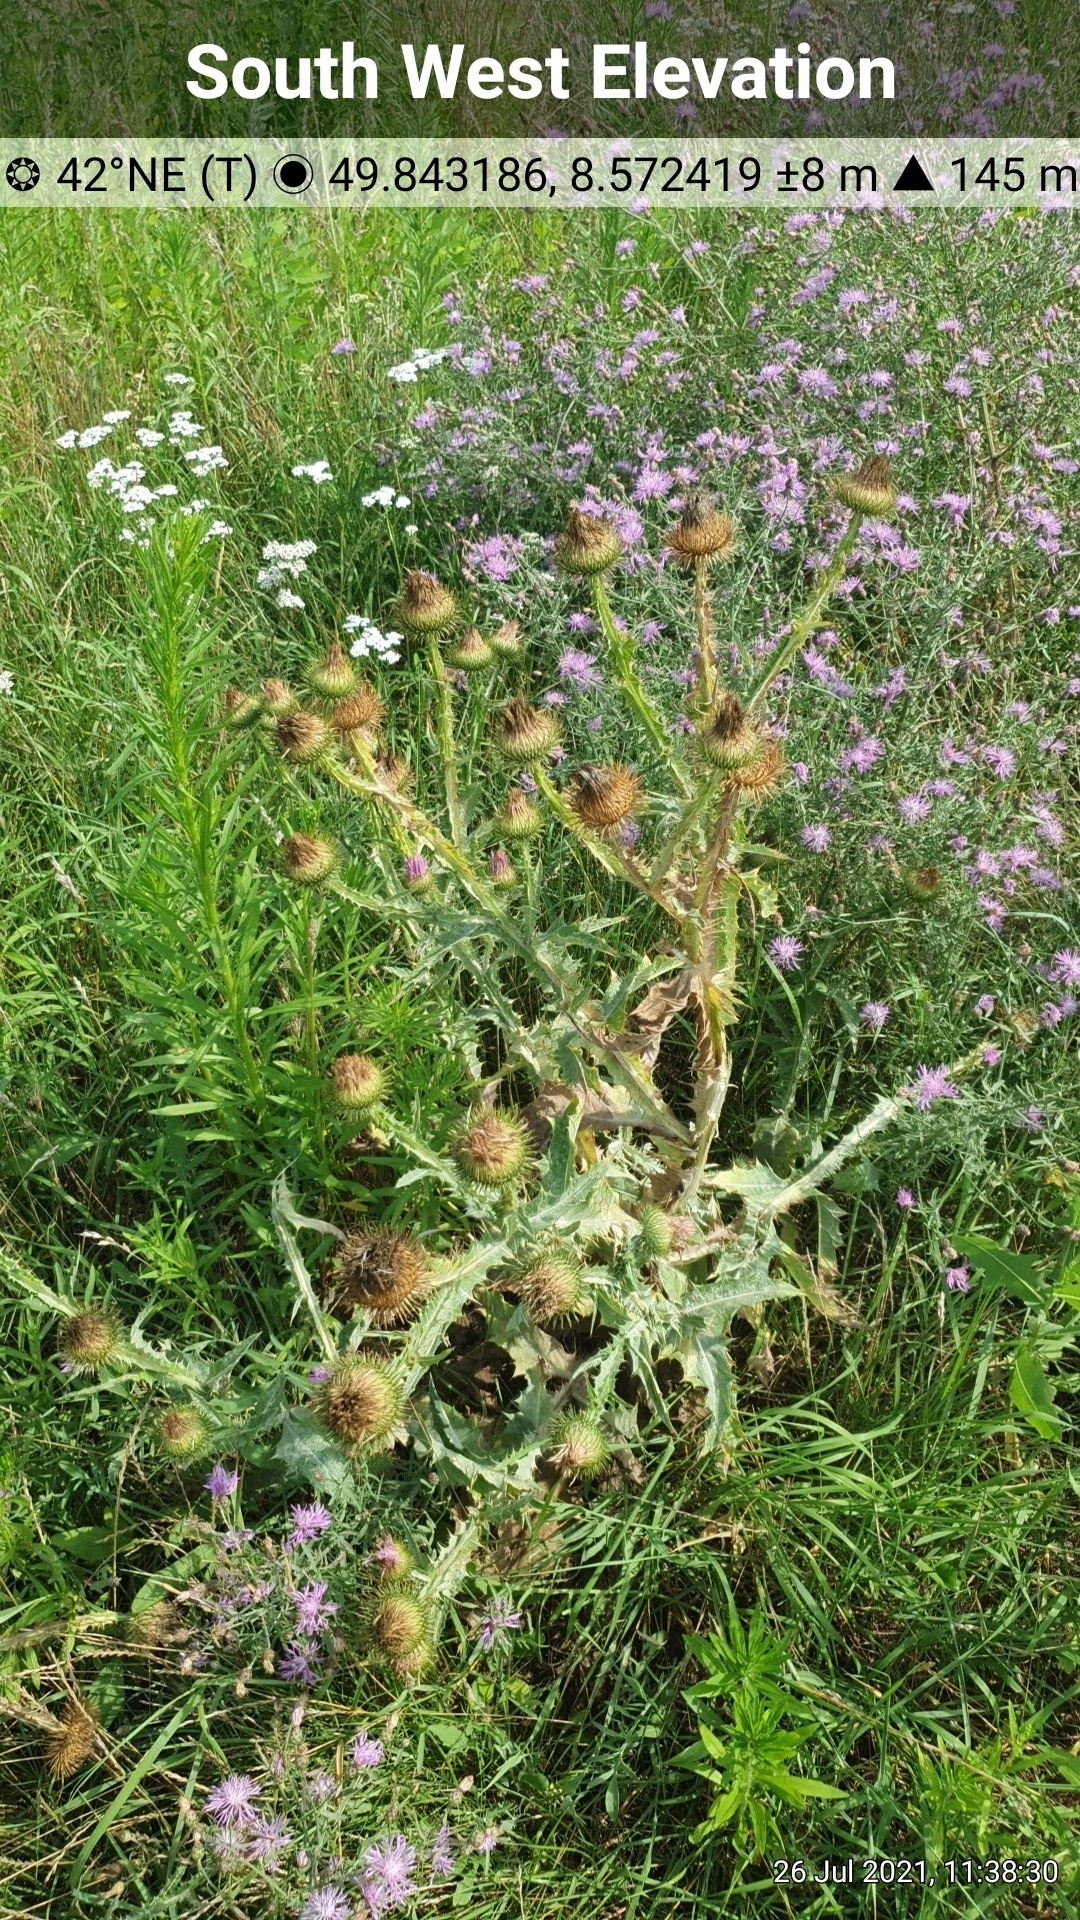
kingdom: Plantae
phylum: Tracheophyta
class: Magnoliopsida
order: Asterales
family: Asteraceae
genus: Onopordum
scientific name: Onopordum acanthium
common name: Scotch thistle
